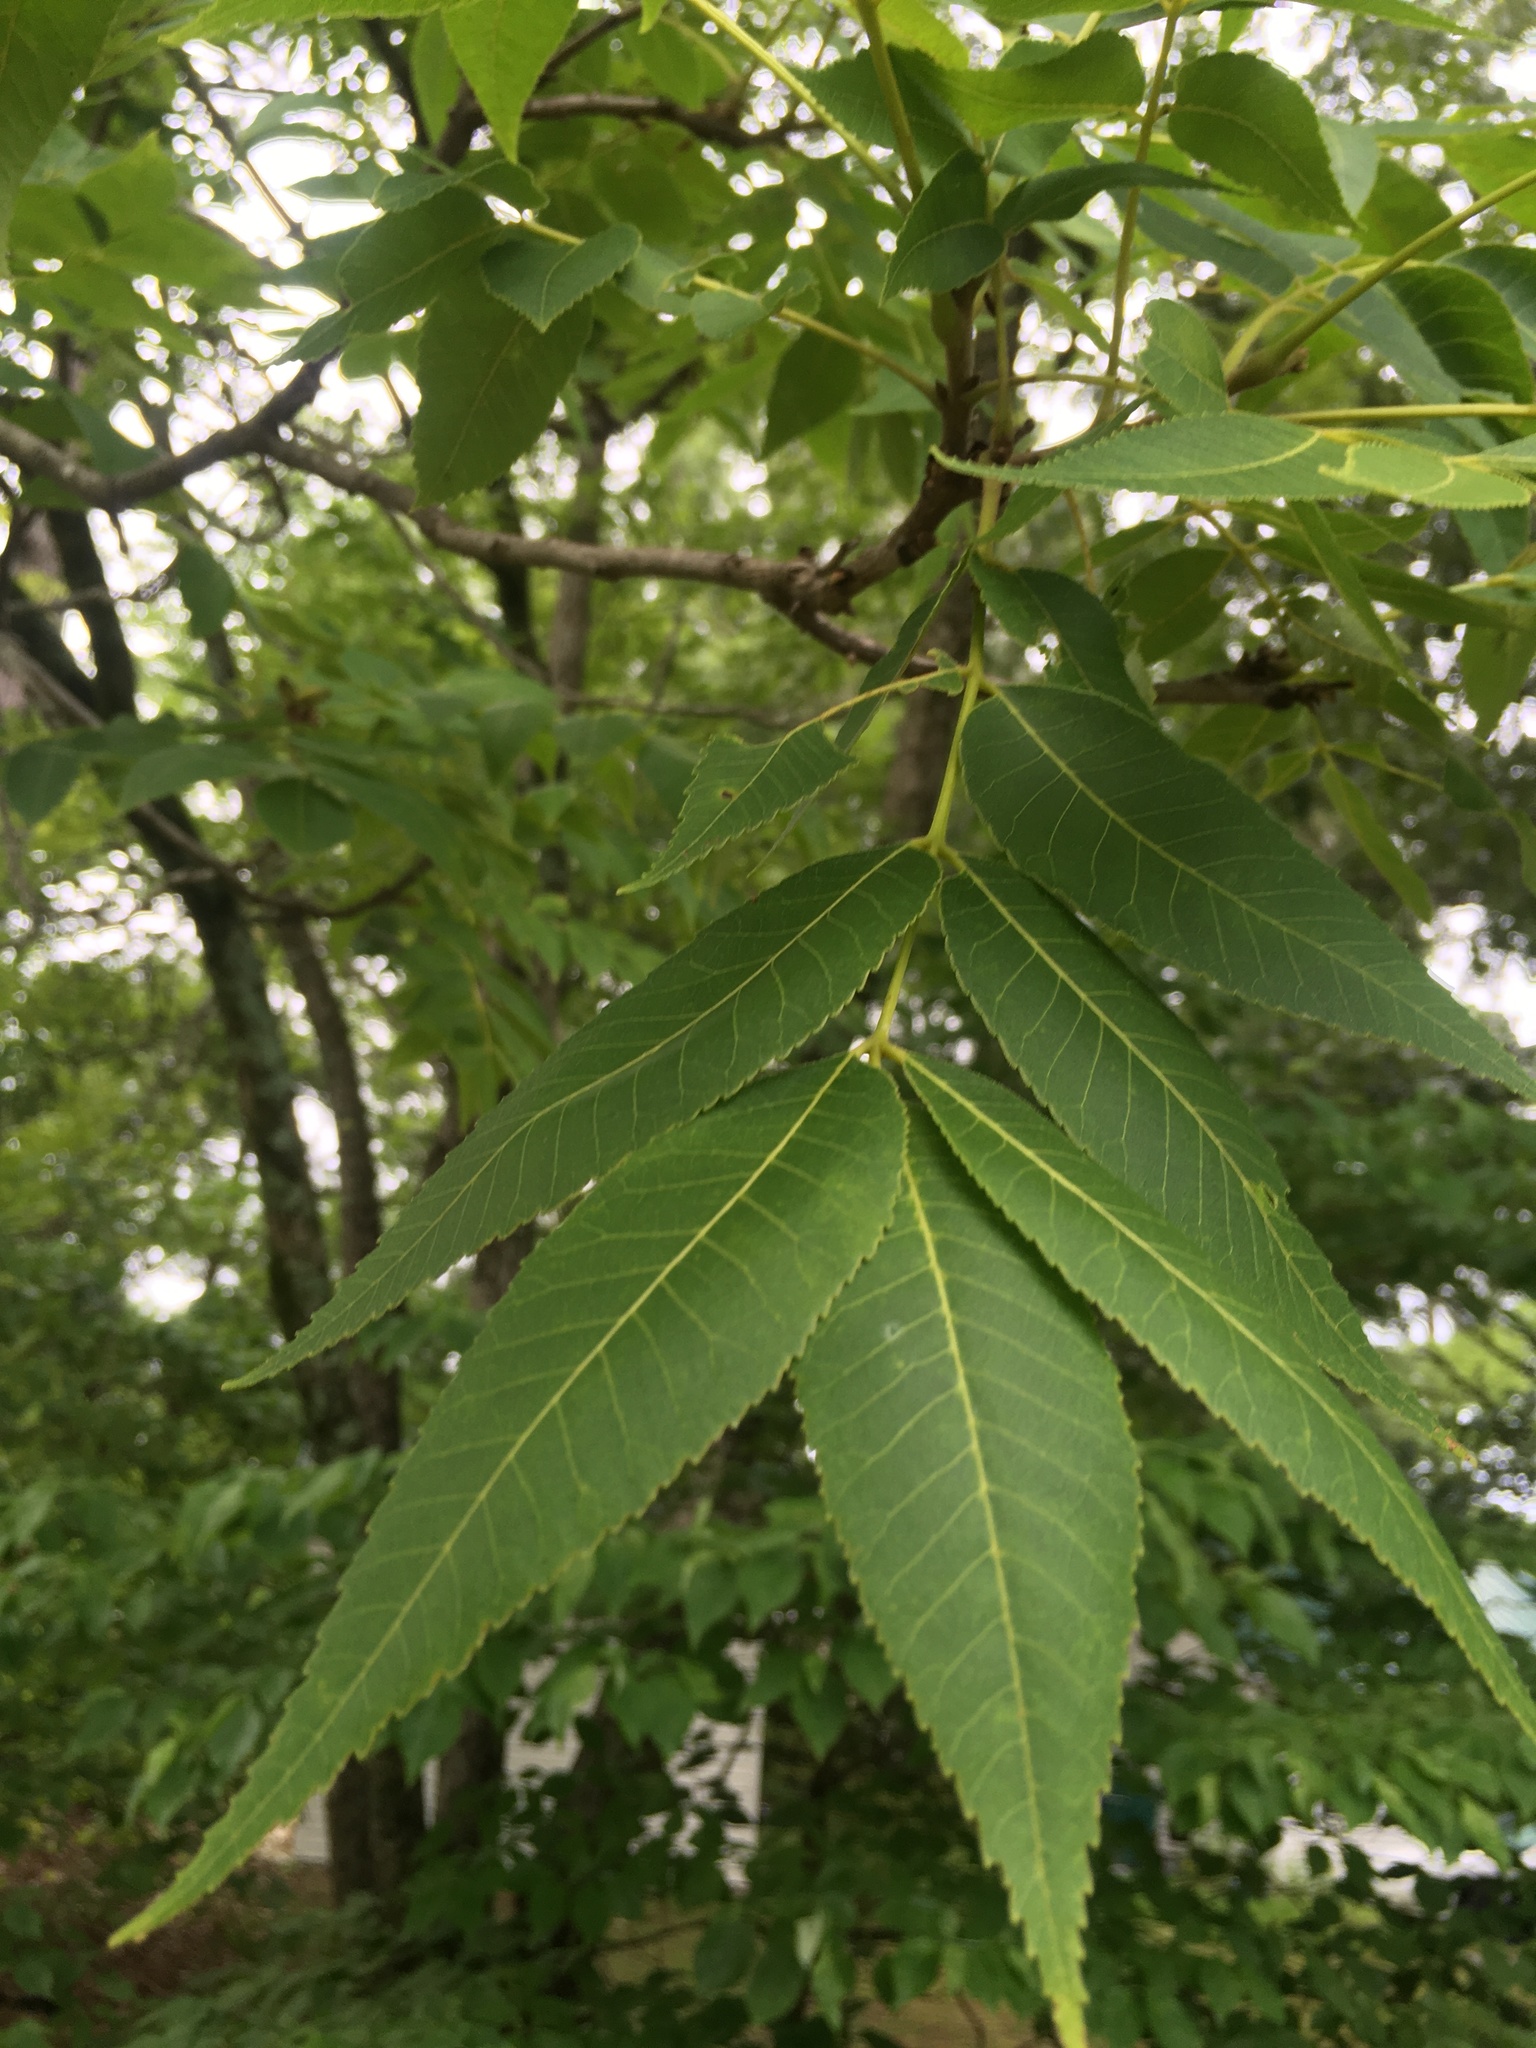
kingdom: Plantae
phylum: Tracheophyta
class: Magnoliopsida
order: Fagales
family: Juglandaceae
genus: Juglans
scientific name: Juglans nigra
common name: Black walnut
